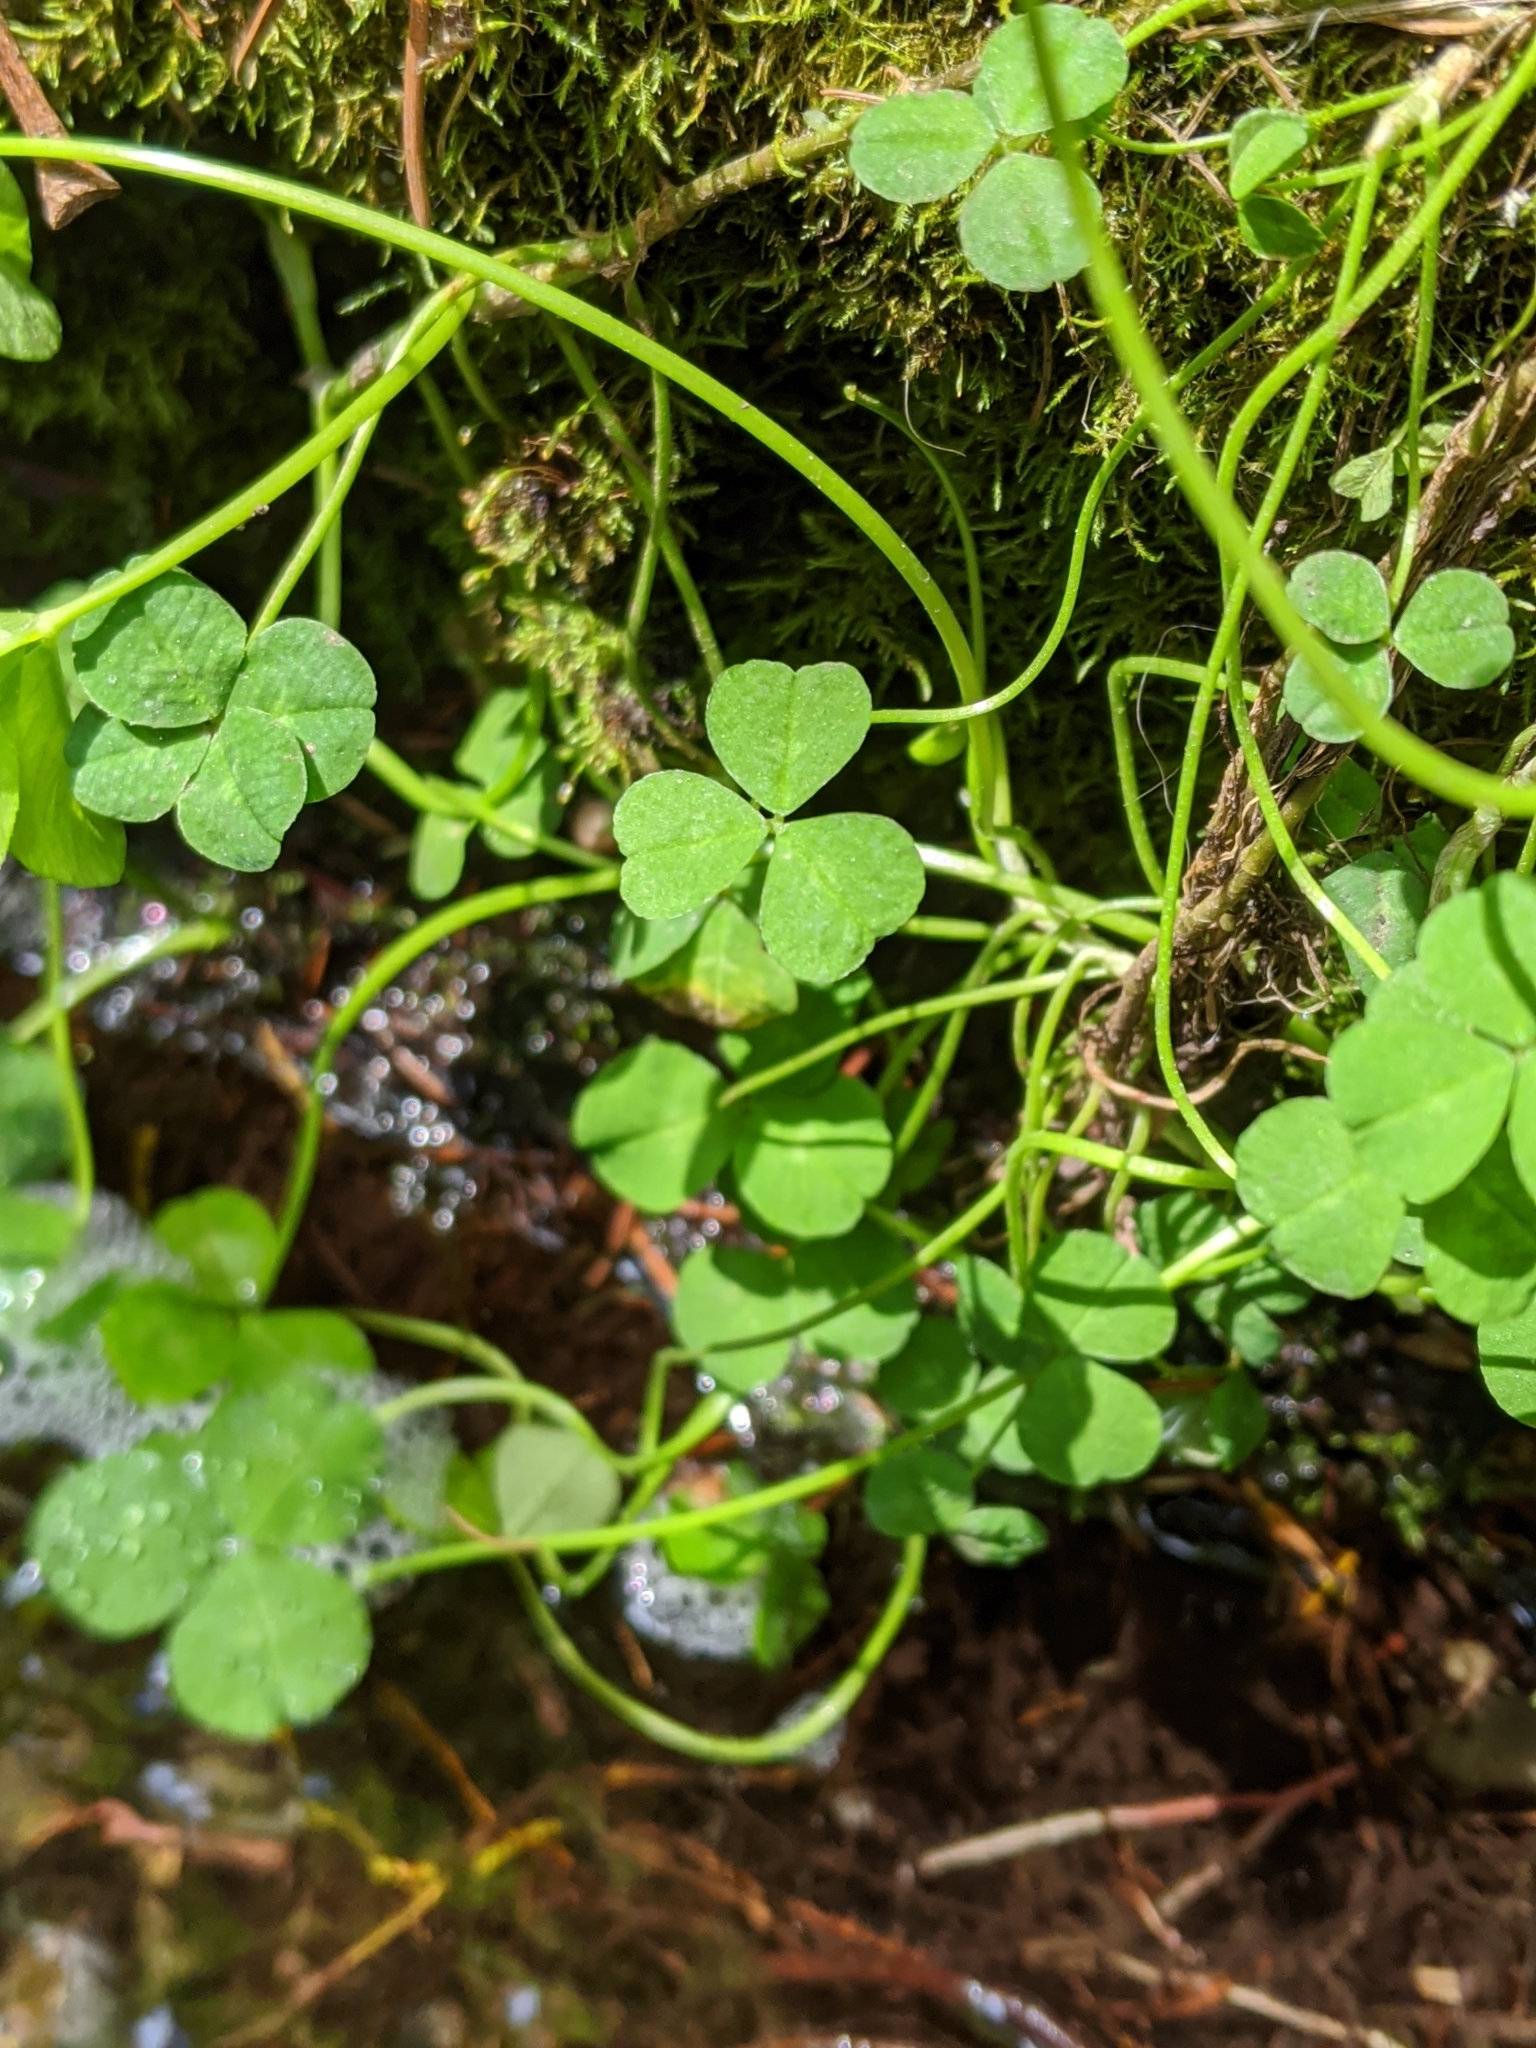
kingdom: Plantae
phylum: Tracheophyta
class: Magnoliopsida
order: Fabales
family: Fabaceae
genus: Trifolium
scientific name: Trifolium repens
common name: White clover
